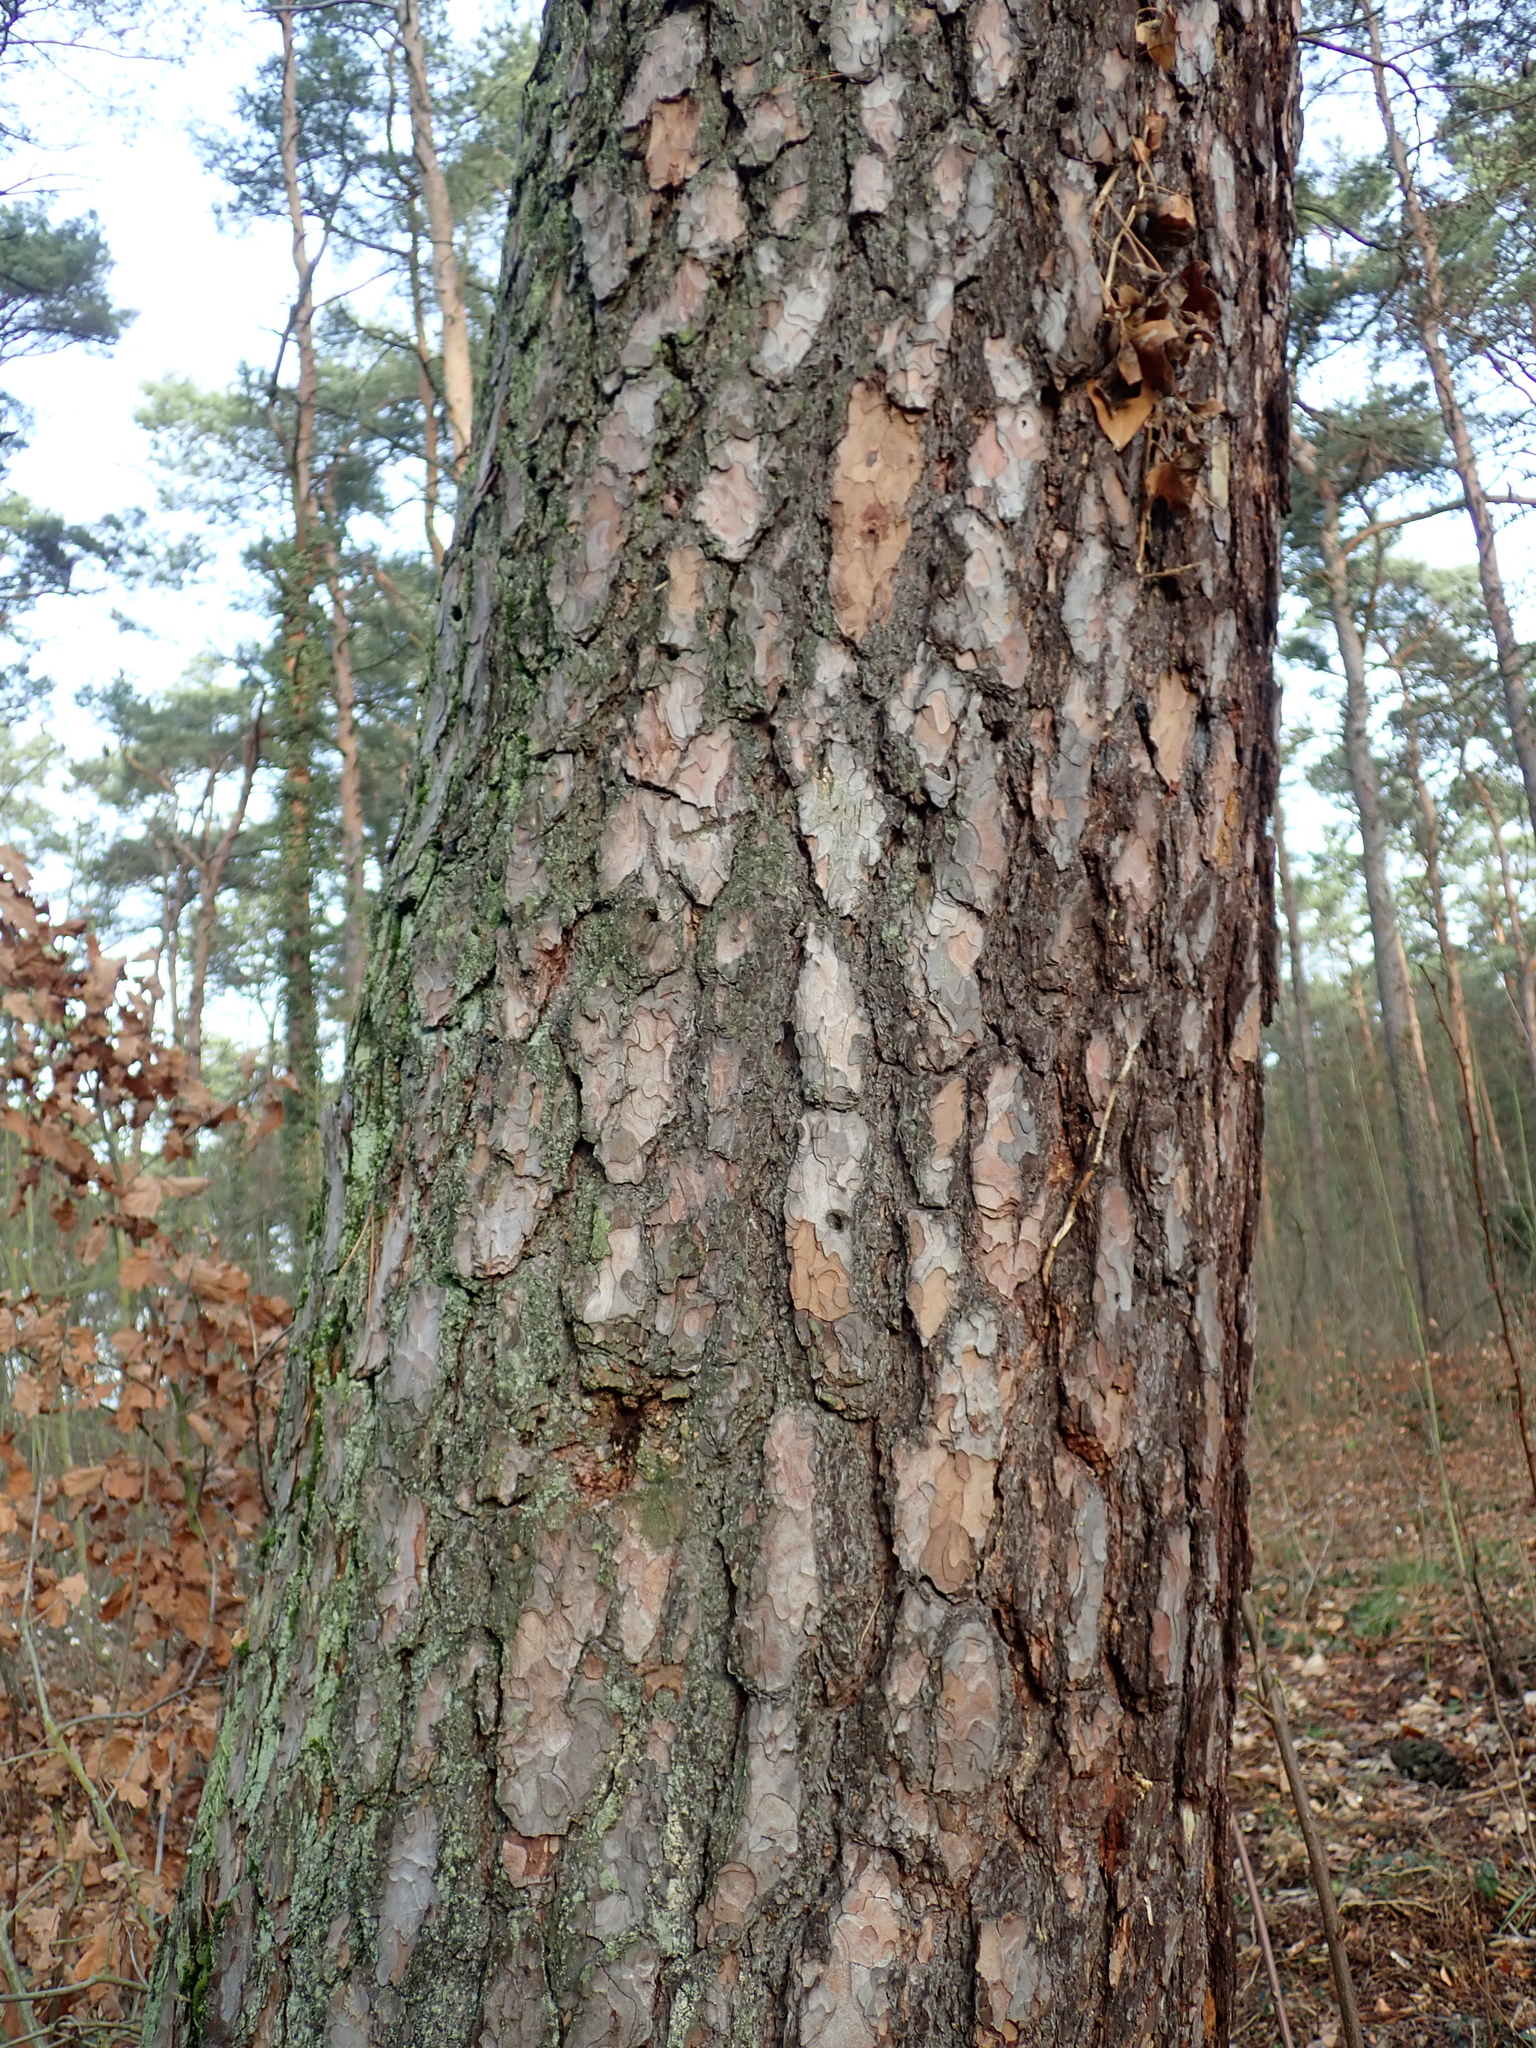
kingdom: Plantae
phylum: Tracheophyta
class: Pinopsida
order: Pinales
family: Pinaceae
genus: Pinus
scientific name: Pinus sylvestris
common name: Scots pine
